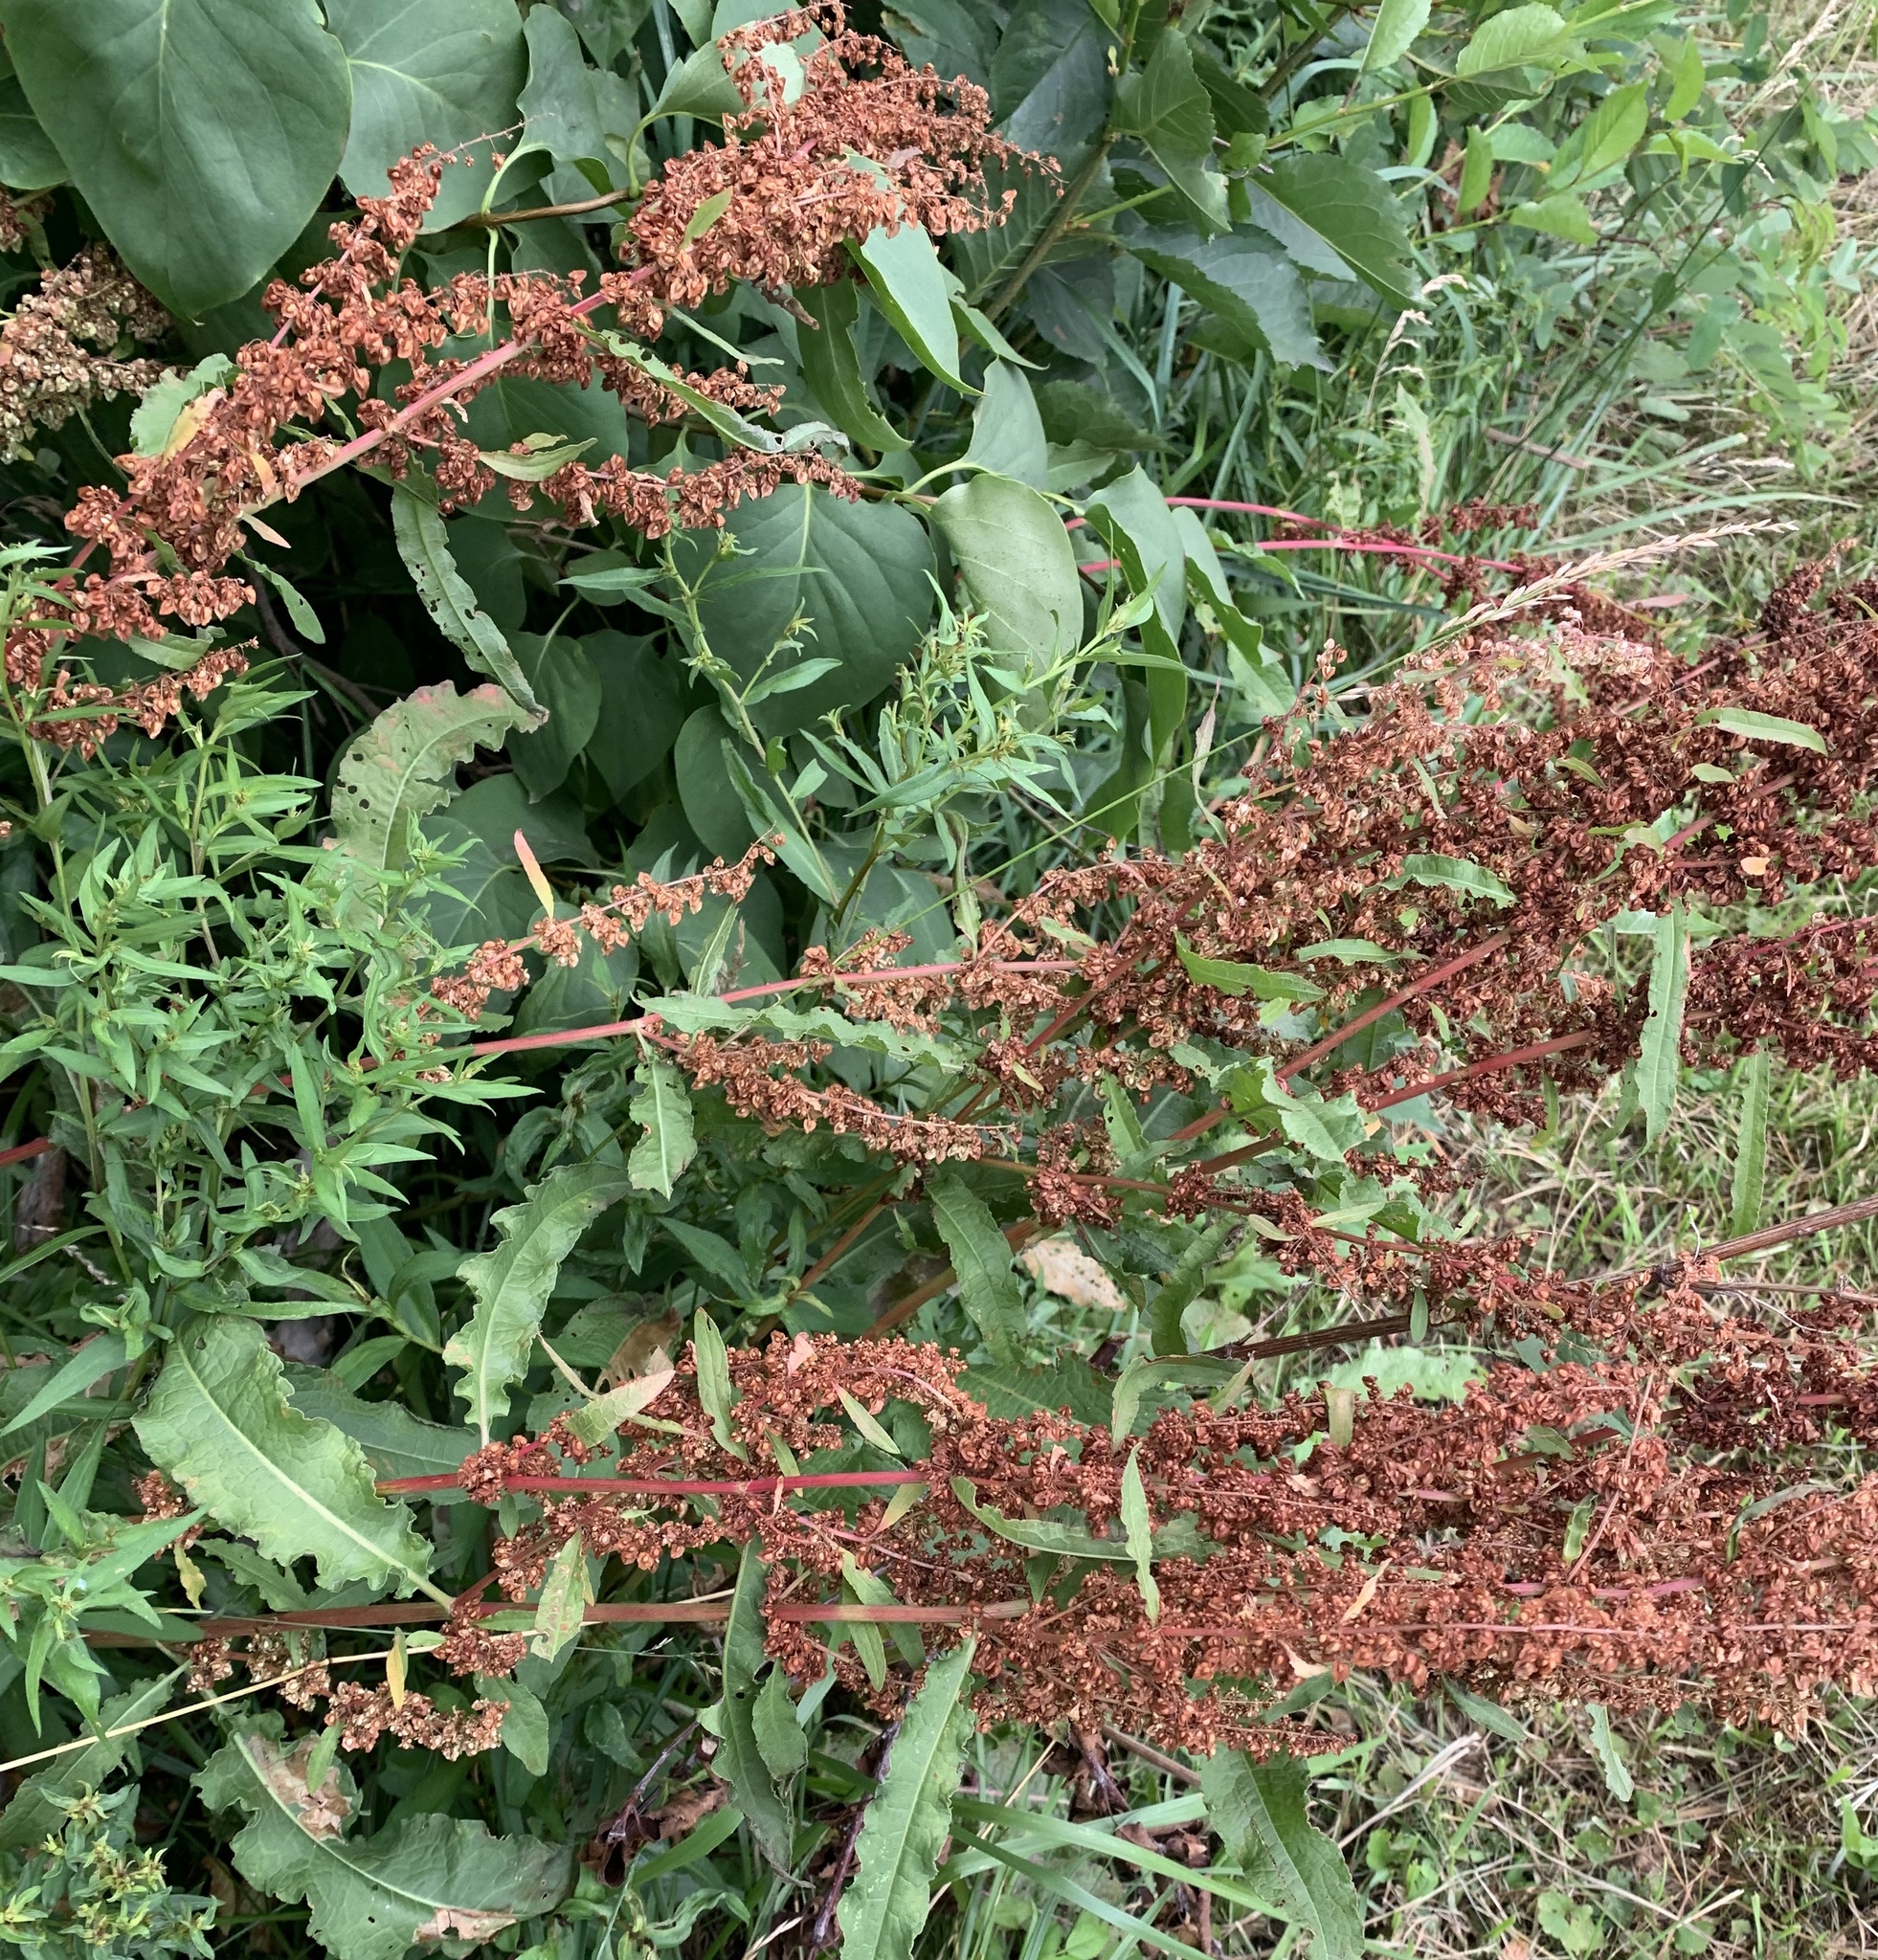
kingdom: Plantae
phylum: Tracheophyta
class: Magnoliopsida
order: Caryophyllales
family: Polygonaceae
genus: Rumex
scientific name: Rumex crispus
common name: Curled dock
